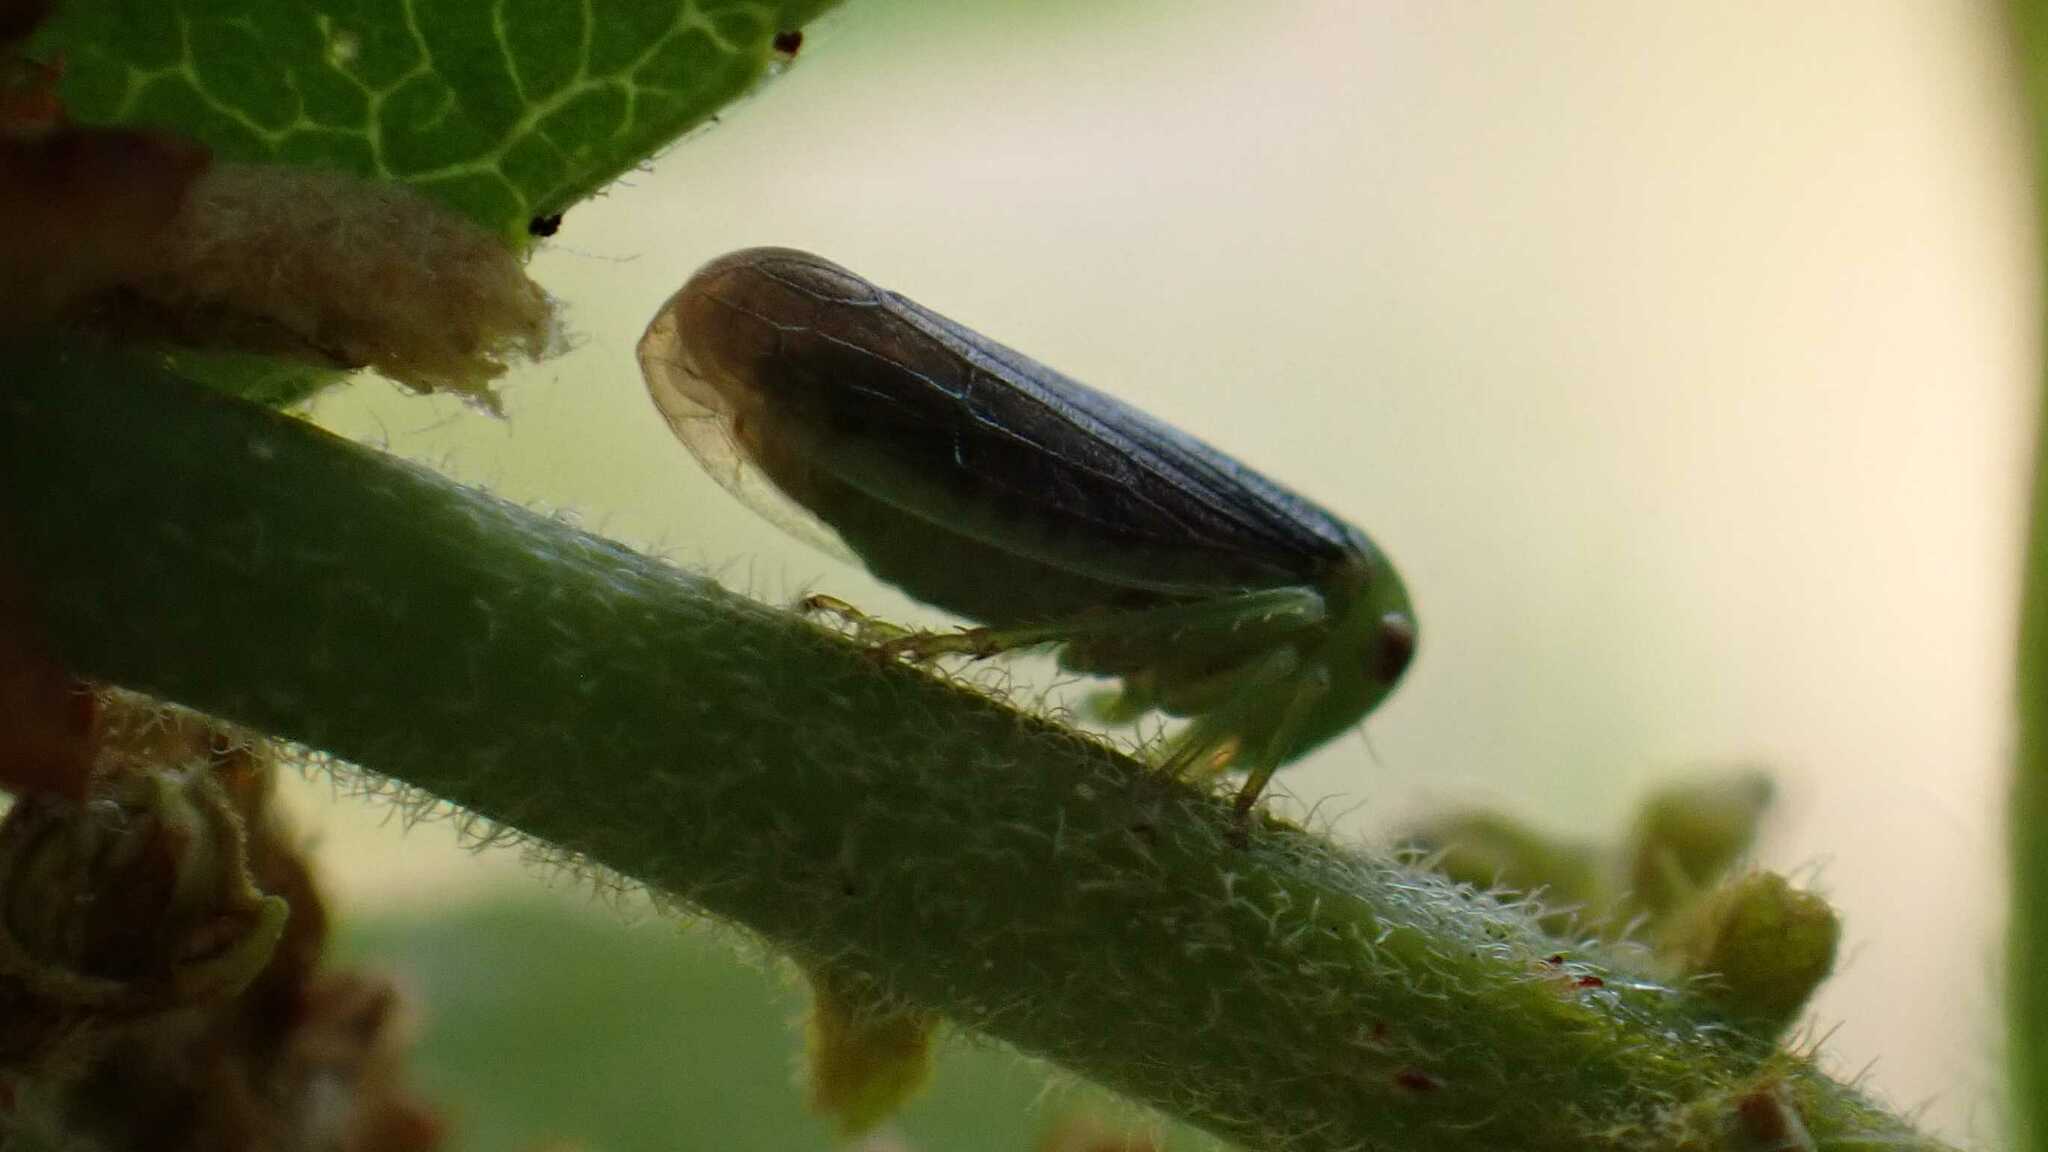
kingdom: Animalia
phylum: Arthropoda
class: Insecta
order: Hemiptera
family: Cicadellidae
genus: Macropsis
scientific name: Macropsis fumipennis
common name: The honeylocust leafhopper
